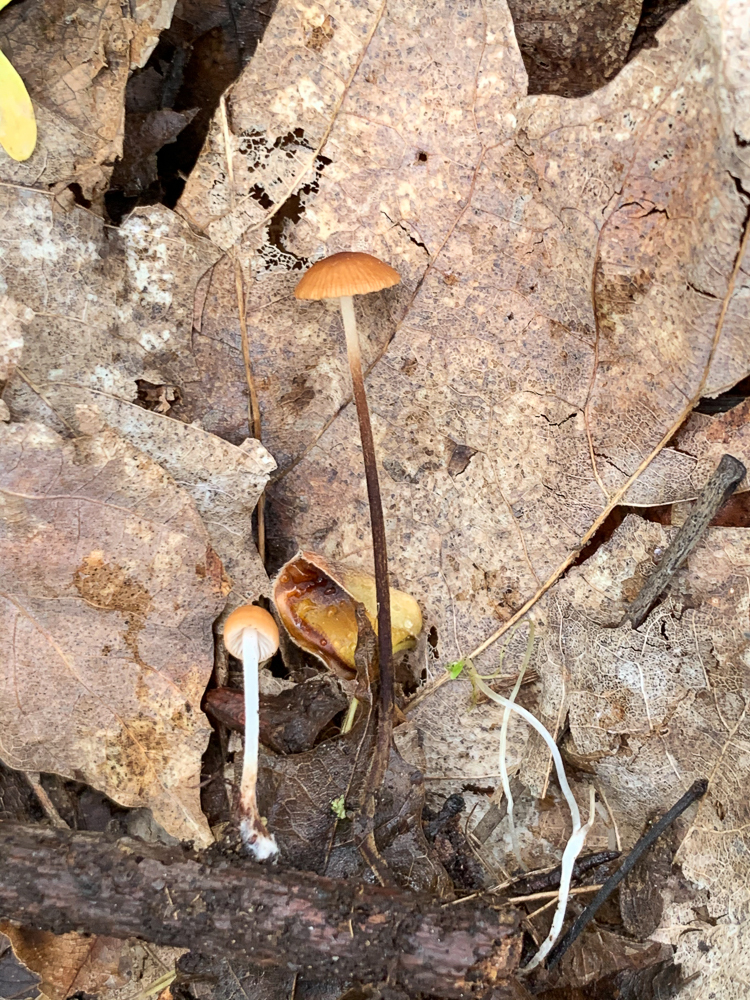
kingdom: Fungi
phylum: Basidiomycota
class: Agaricomycetes
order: Agaricales
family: Physalacriaceae
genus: Rhizomarasmius
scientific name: Rhizomarasmius pyrrhocephalus
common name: Hairy long stem marasmius
